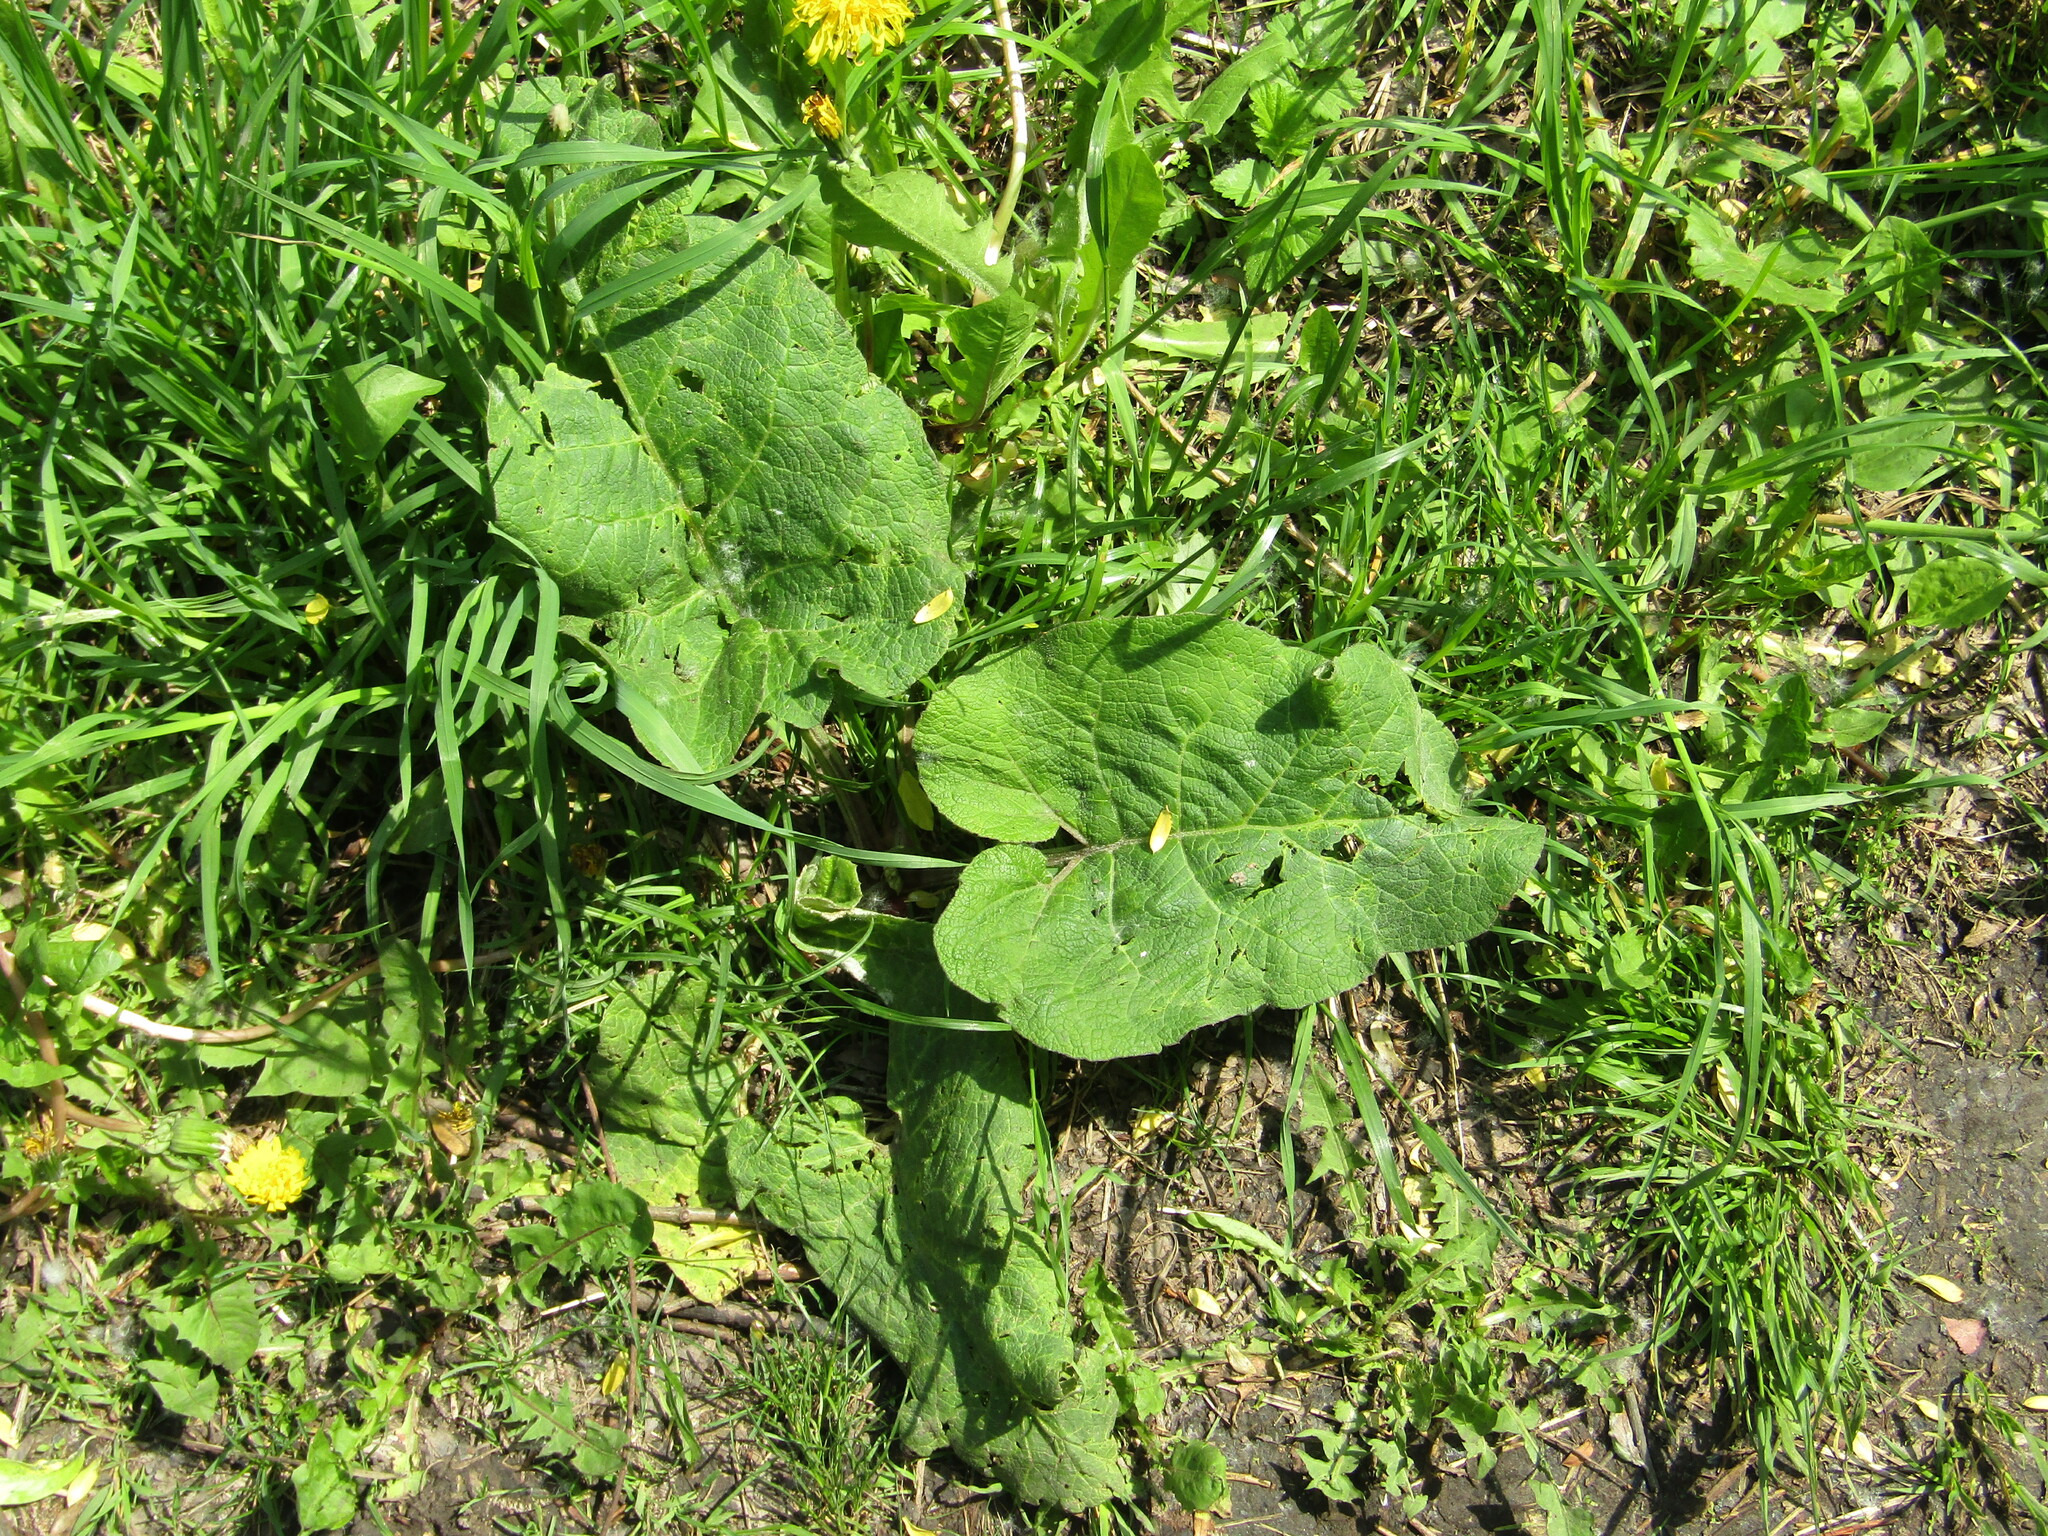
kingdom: Plantae
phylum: Tracheophyta
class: Magnoliopsida
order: Asterales
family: Asteraceae
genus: Arctium
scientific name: Arctium
